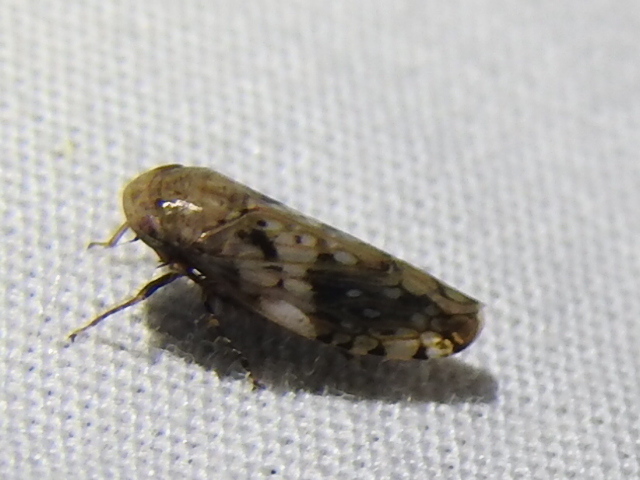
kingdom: Animalia
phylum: Arthropoda
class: Insecta
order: Hemiptera
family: Cicadellidae
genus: Menosoma
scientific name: Menosoma cinctum
